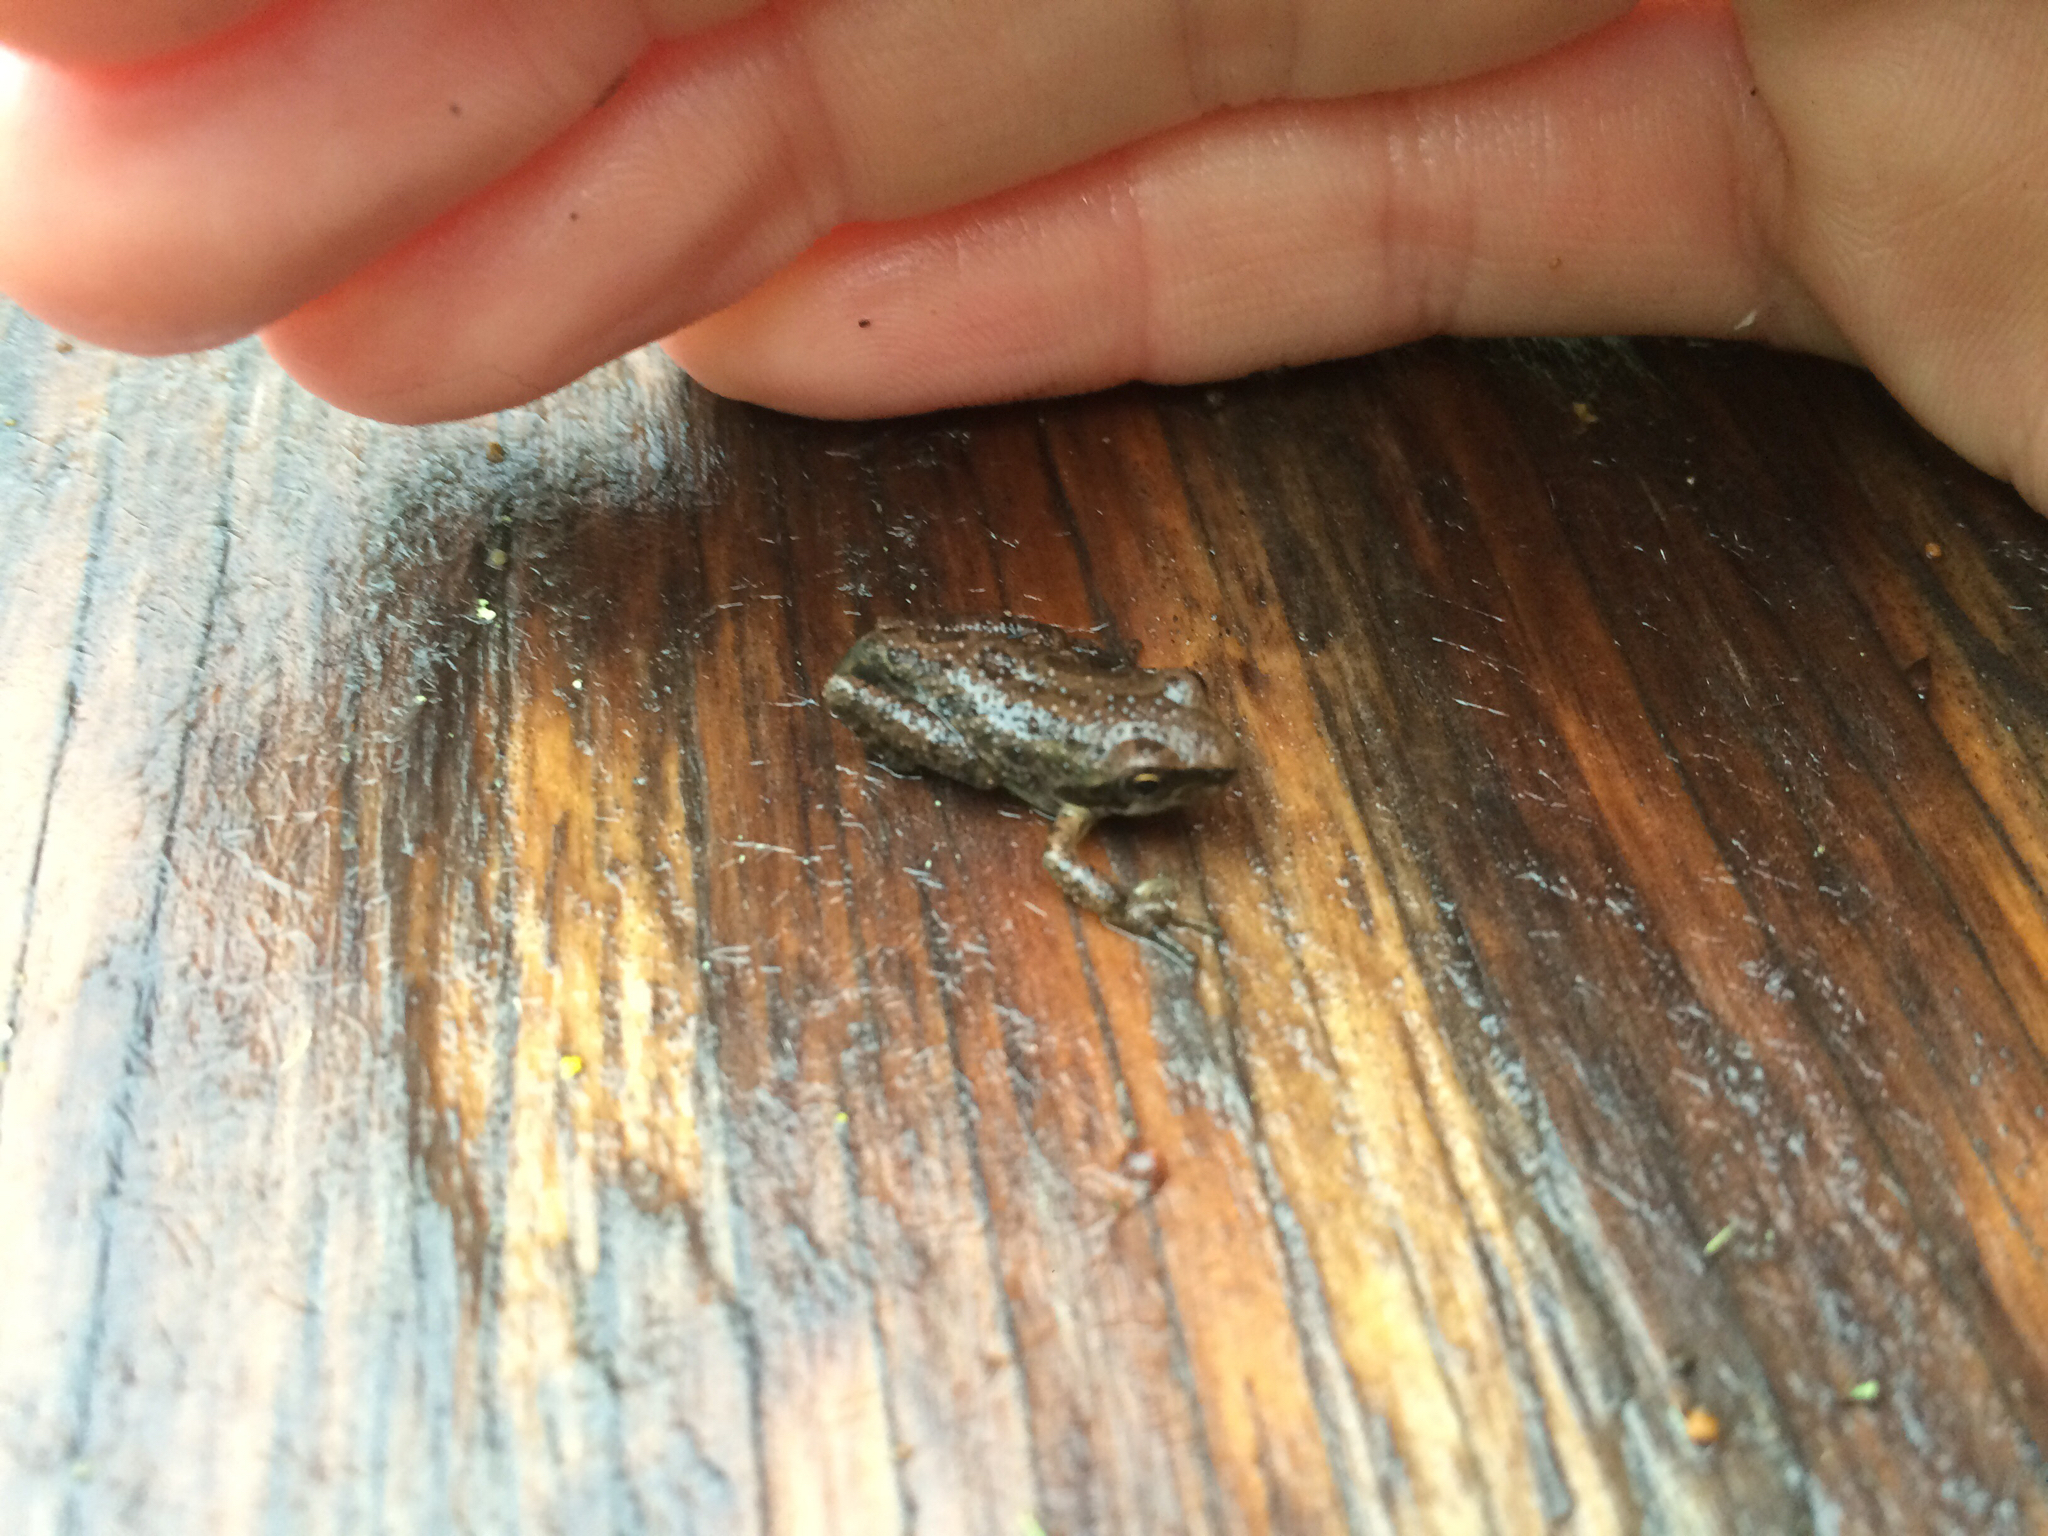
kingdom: Animalia
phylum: Chordata
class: Amphibia
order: Anura
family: Hylidae
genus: Pseudacris
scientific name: Pseudacris regilla
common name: Pacific chorus frog
